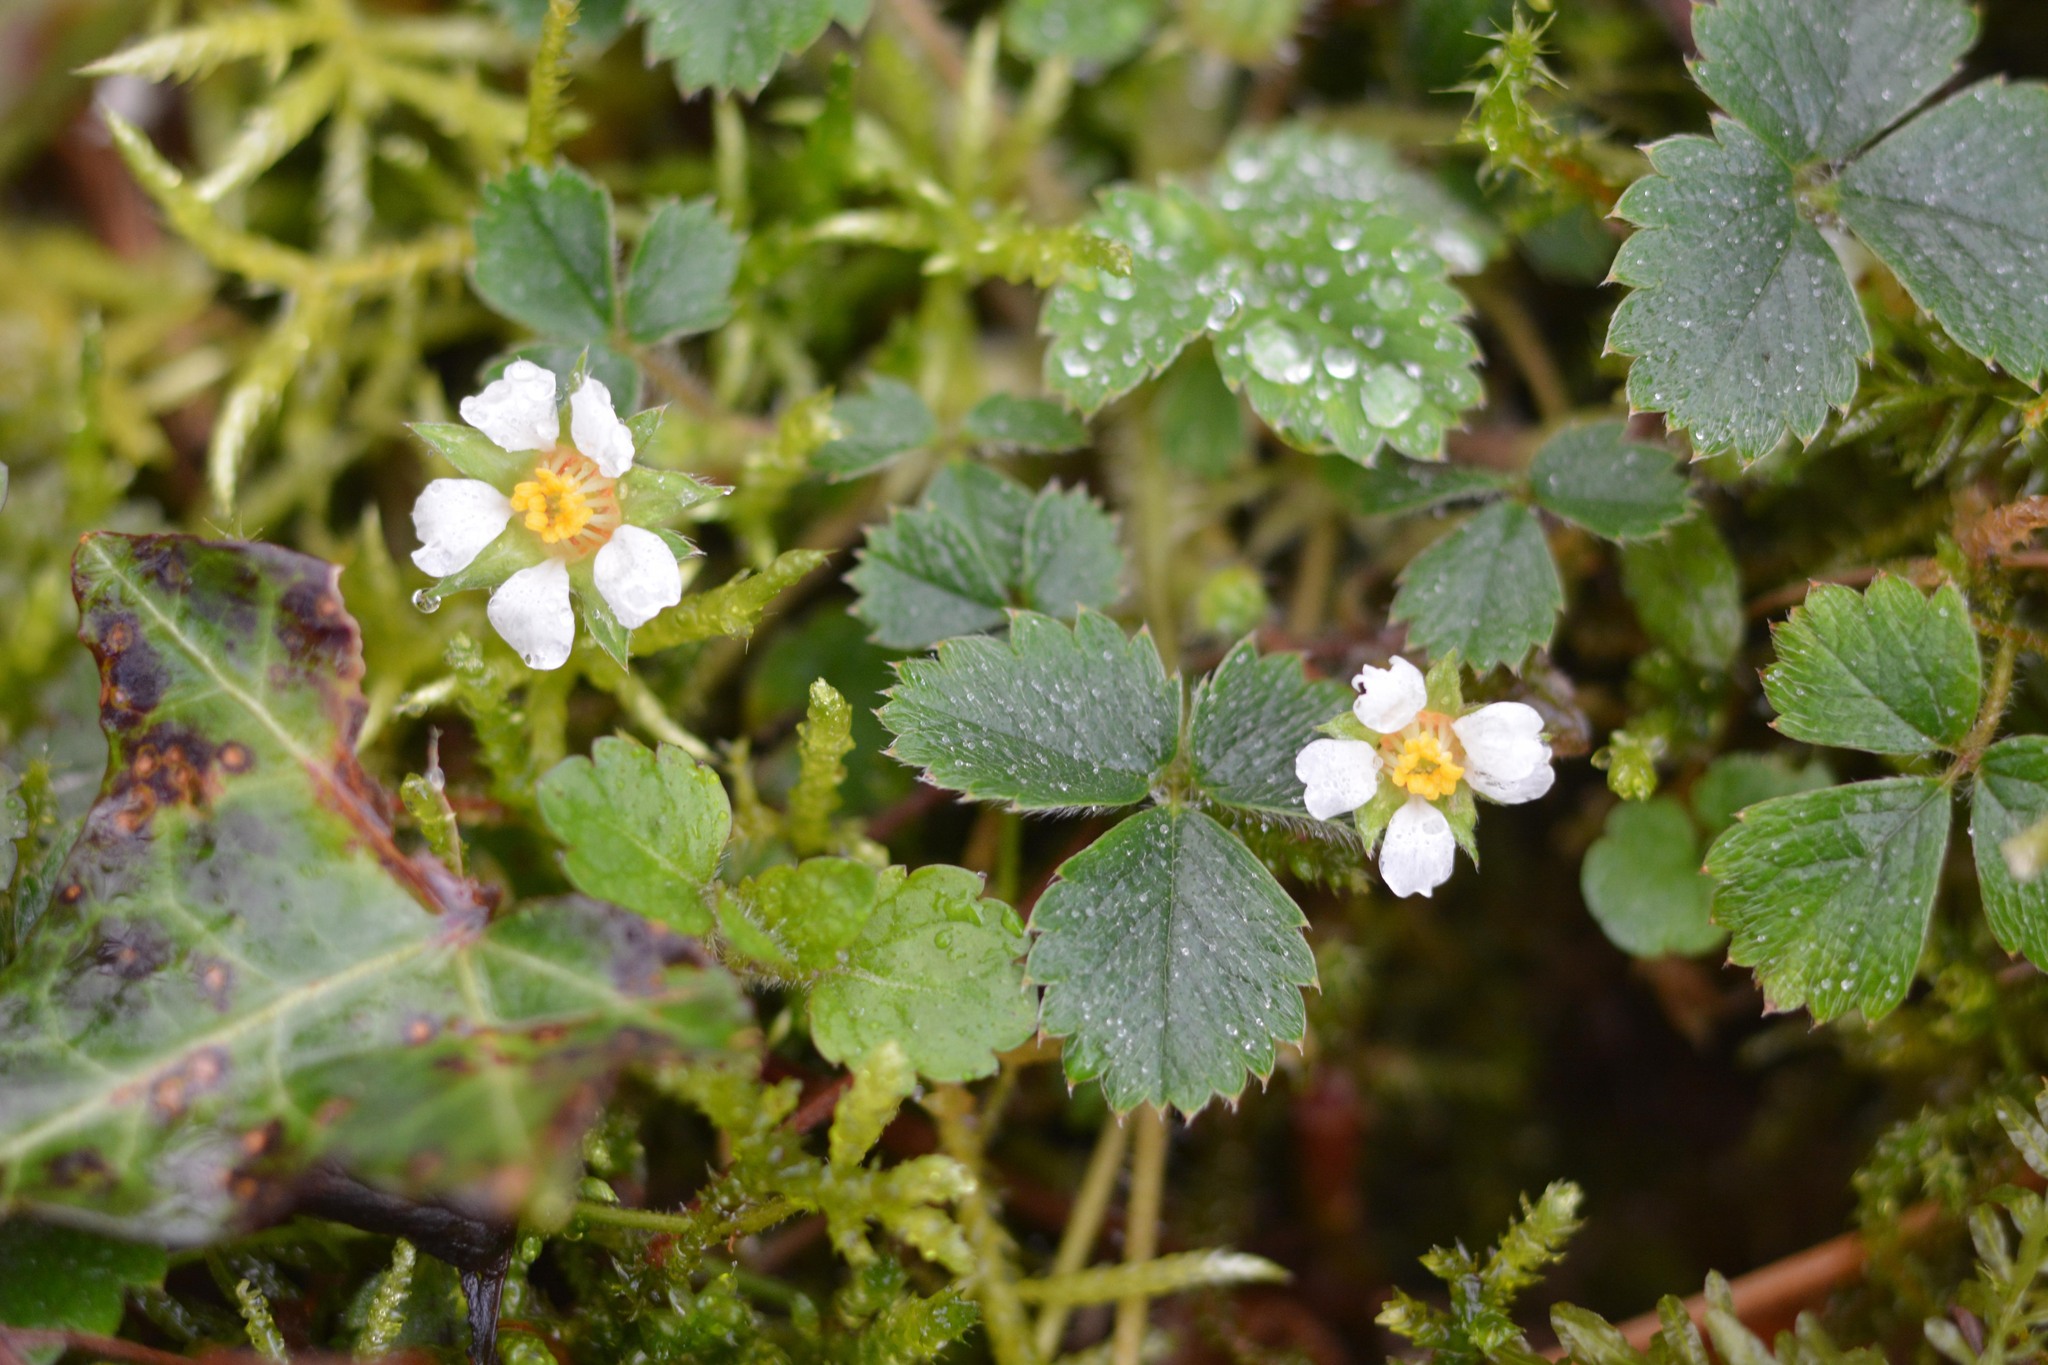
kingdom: Plantae
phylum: Tracheophyta
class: Magnoliopsida
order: Rosales
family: Rosaceae
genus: Potentilla
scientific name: Potentilla sterilis
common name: Barren strawberry
